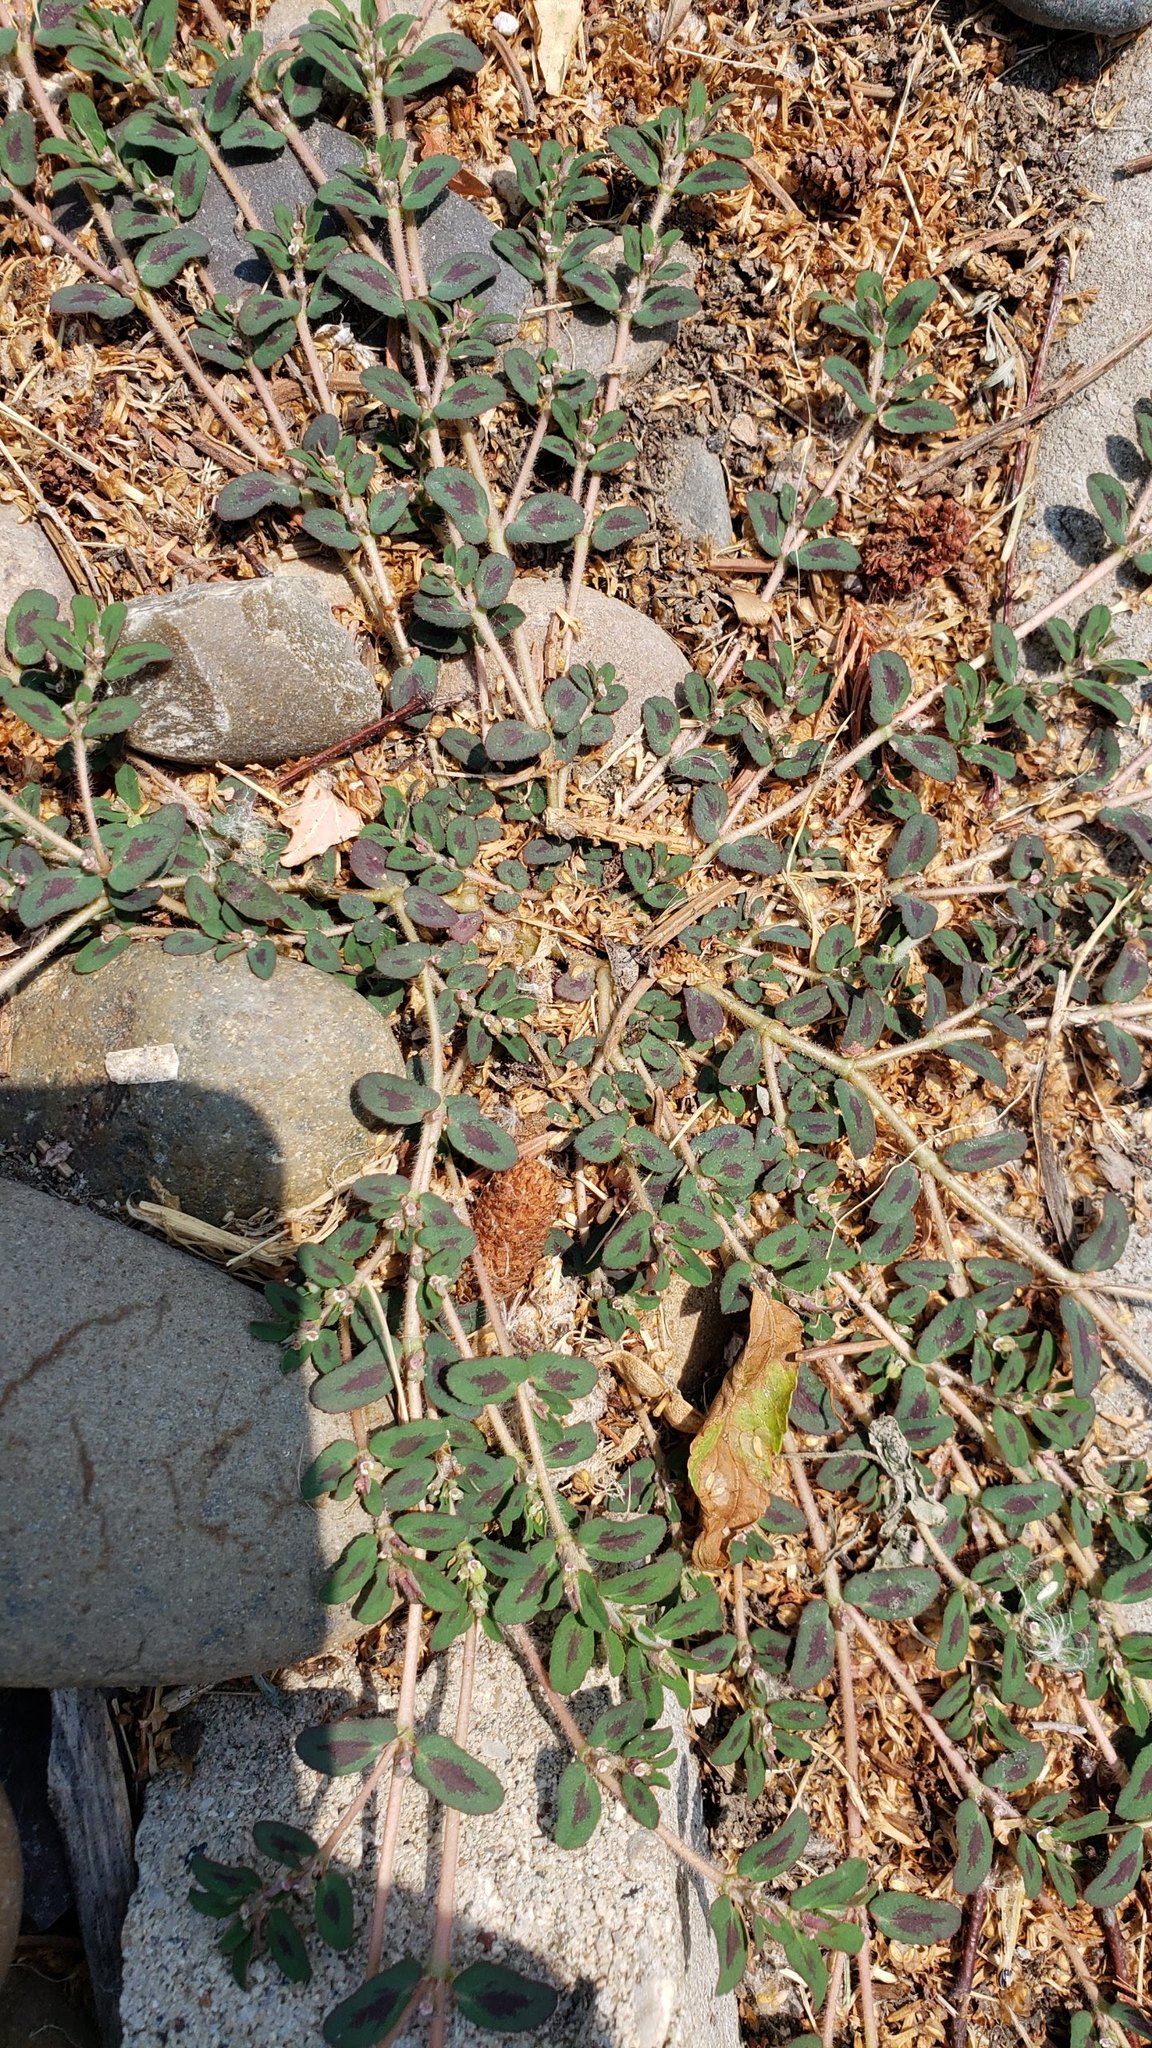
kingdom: Plantae
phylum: Tracheophyta
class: Magnoliopsida
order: Malpighiales
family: Euphorbiaceae
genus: Euphorbia
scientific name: Euphorbia maculata
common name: Spotted spurge
